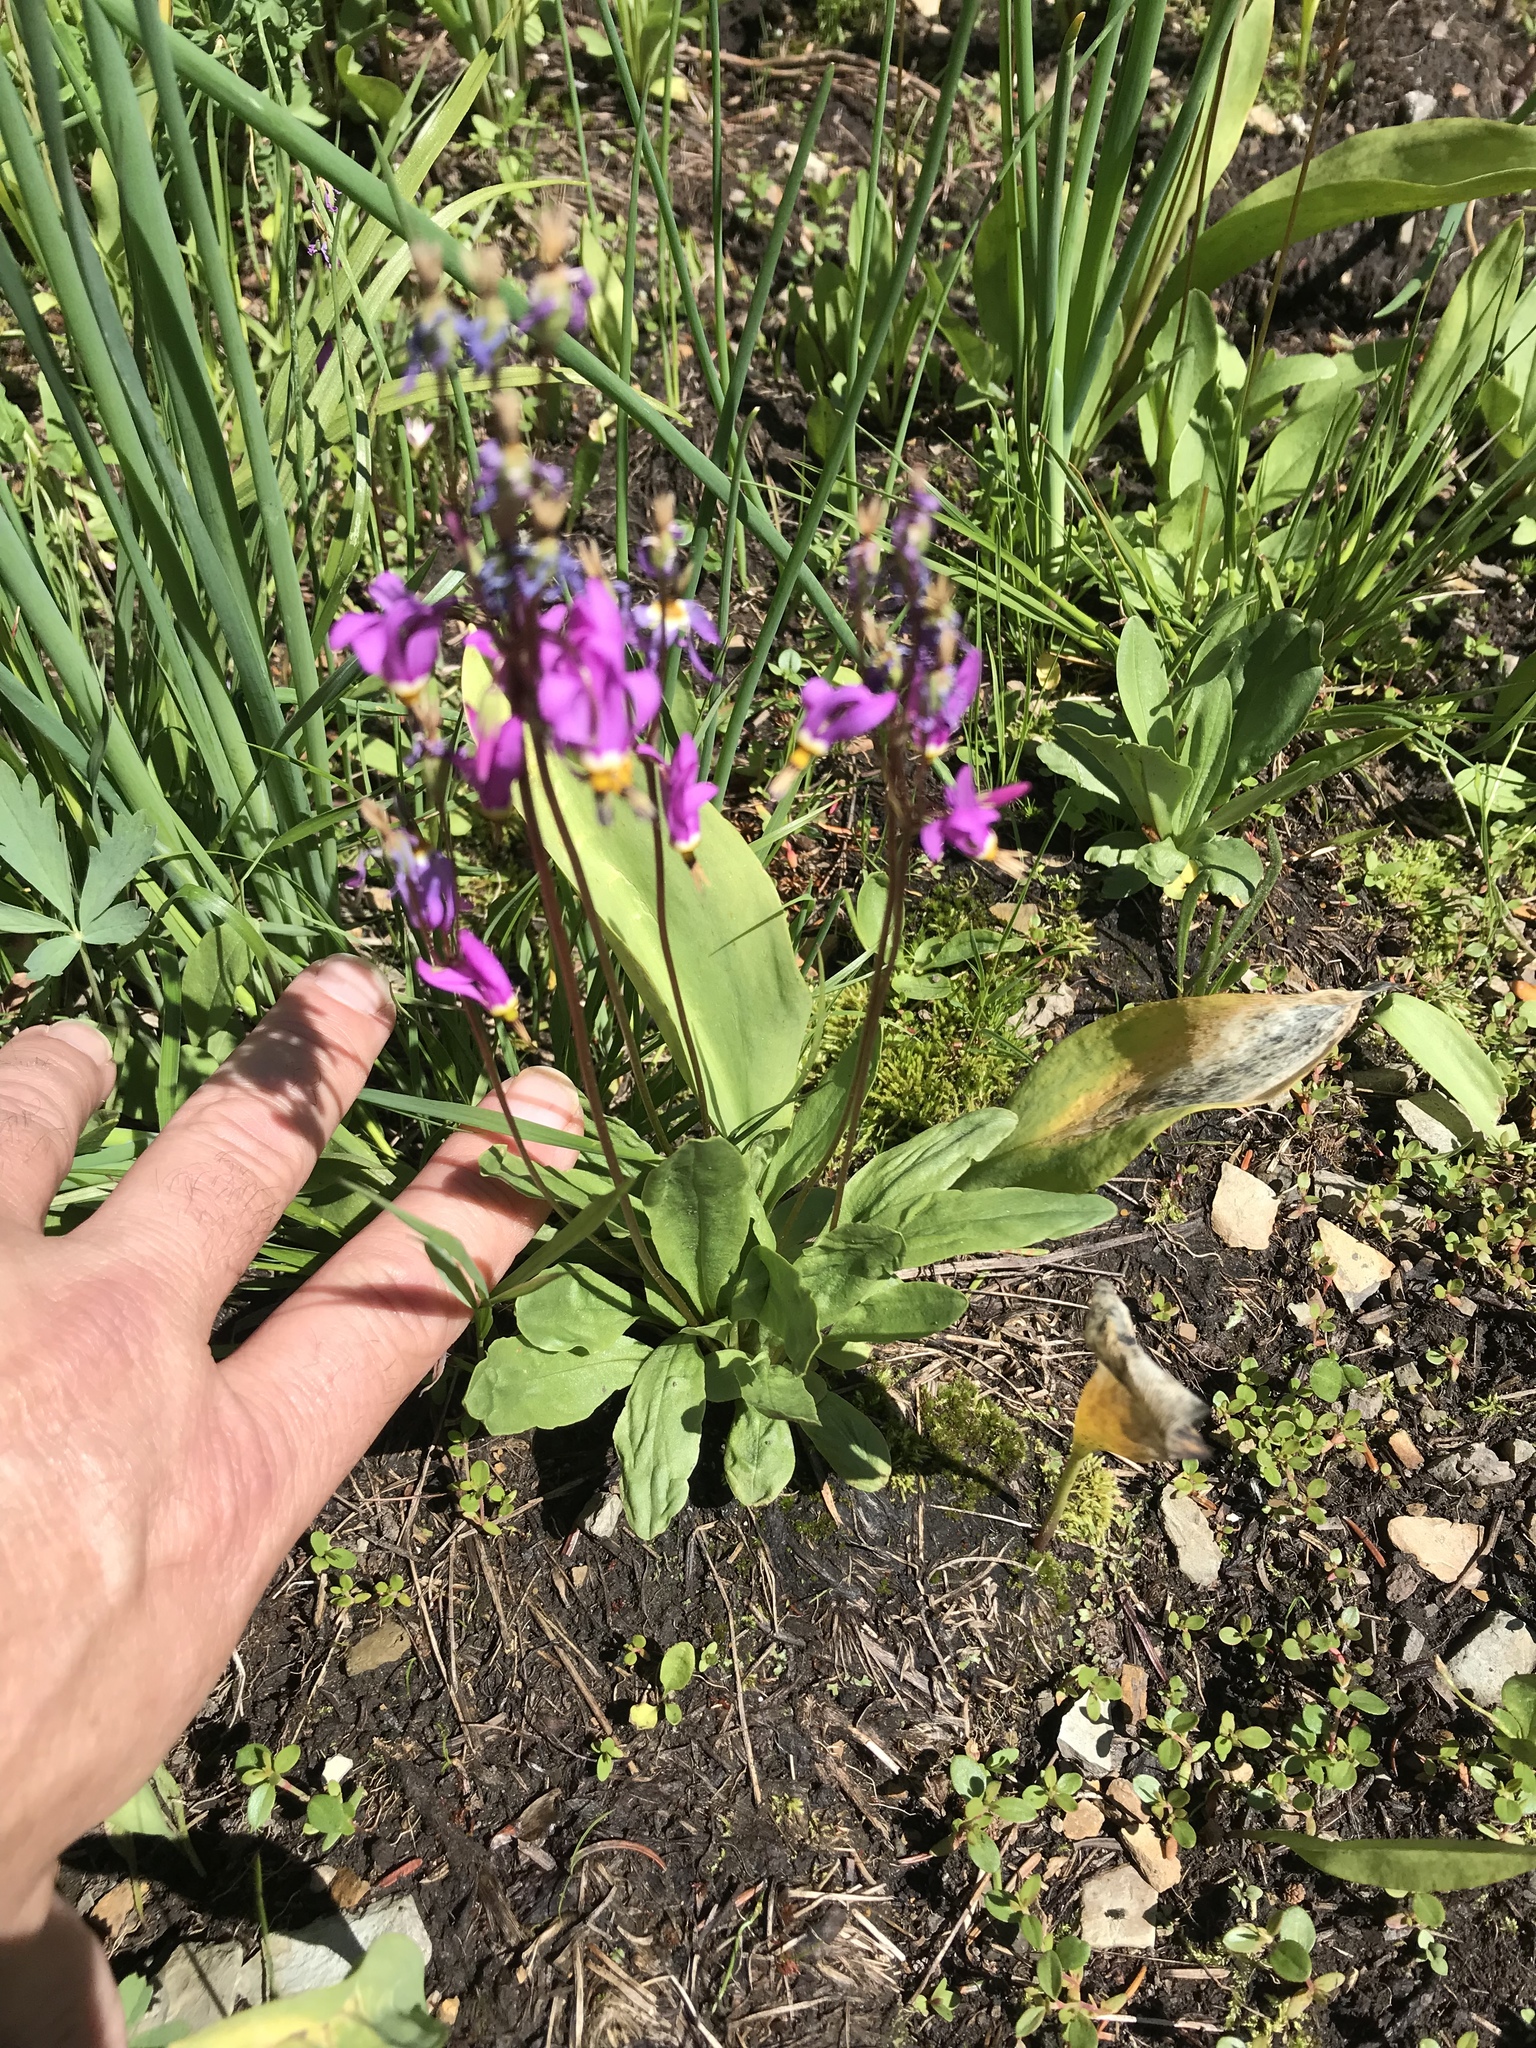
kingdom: Plantae
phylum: Tracheophyta
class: Magnoliopsida
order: Ericales
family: Primulaceae
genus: Dodecatheon
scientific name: Dodecatheon pulchellum
